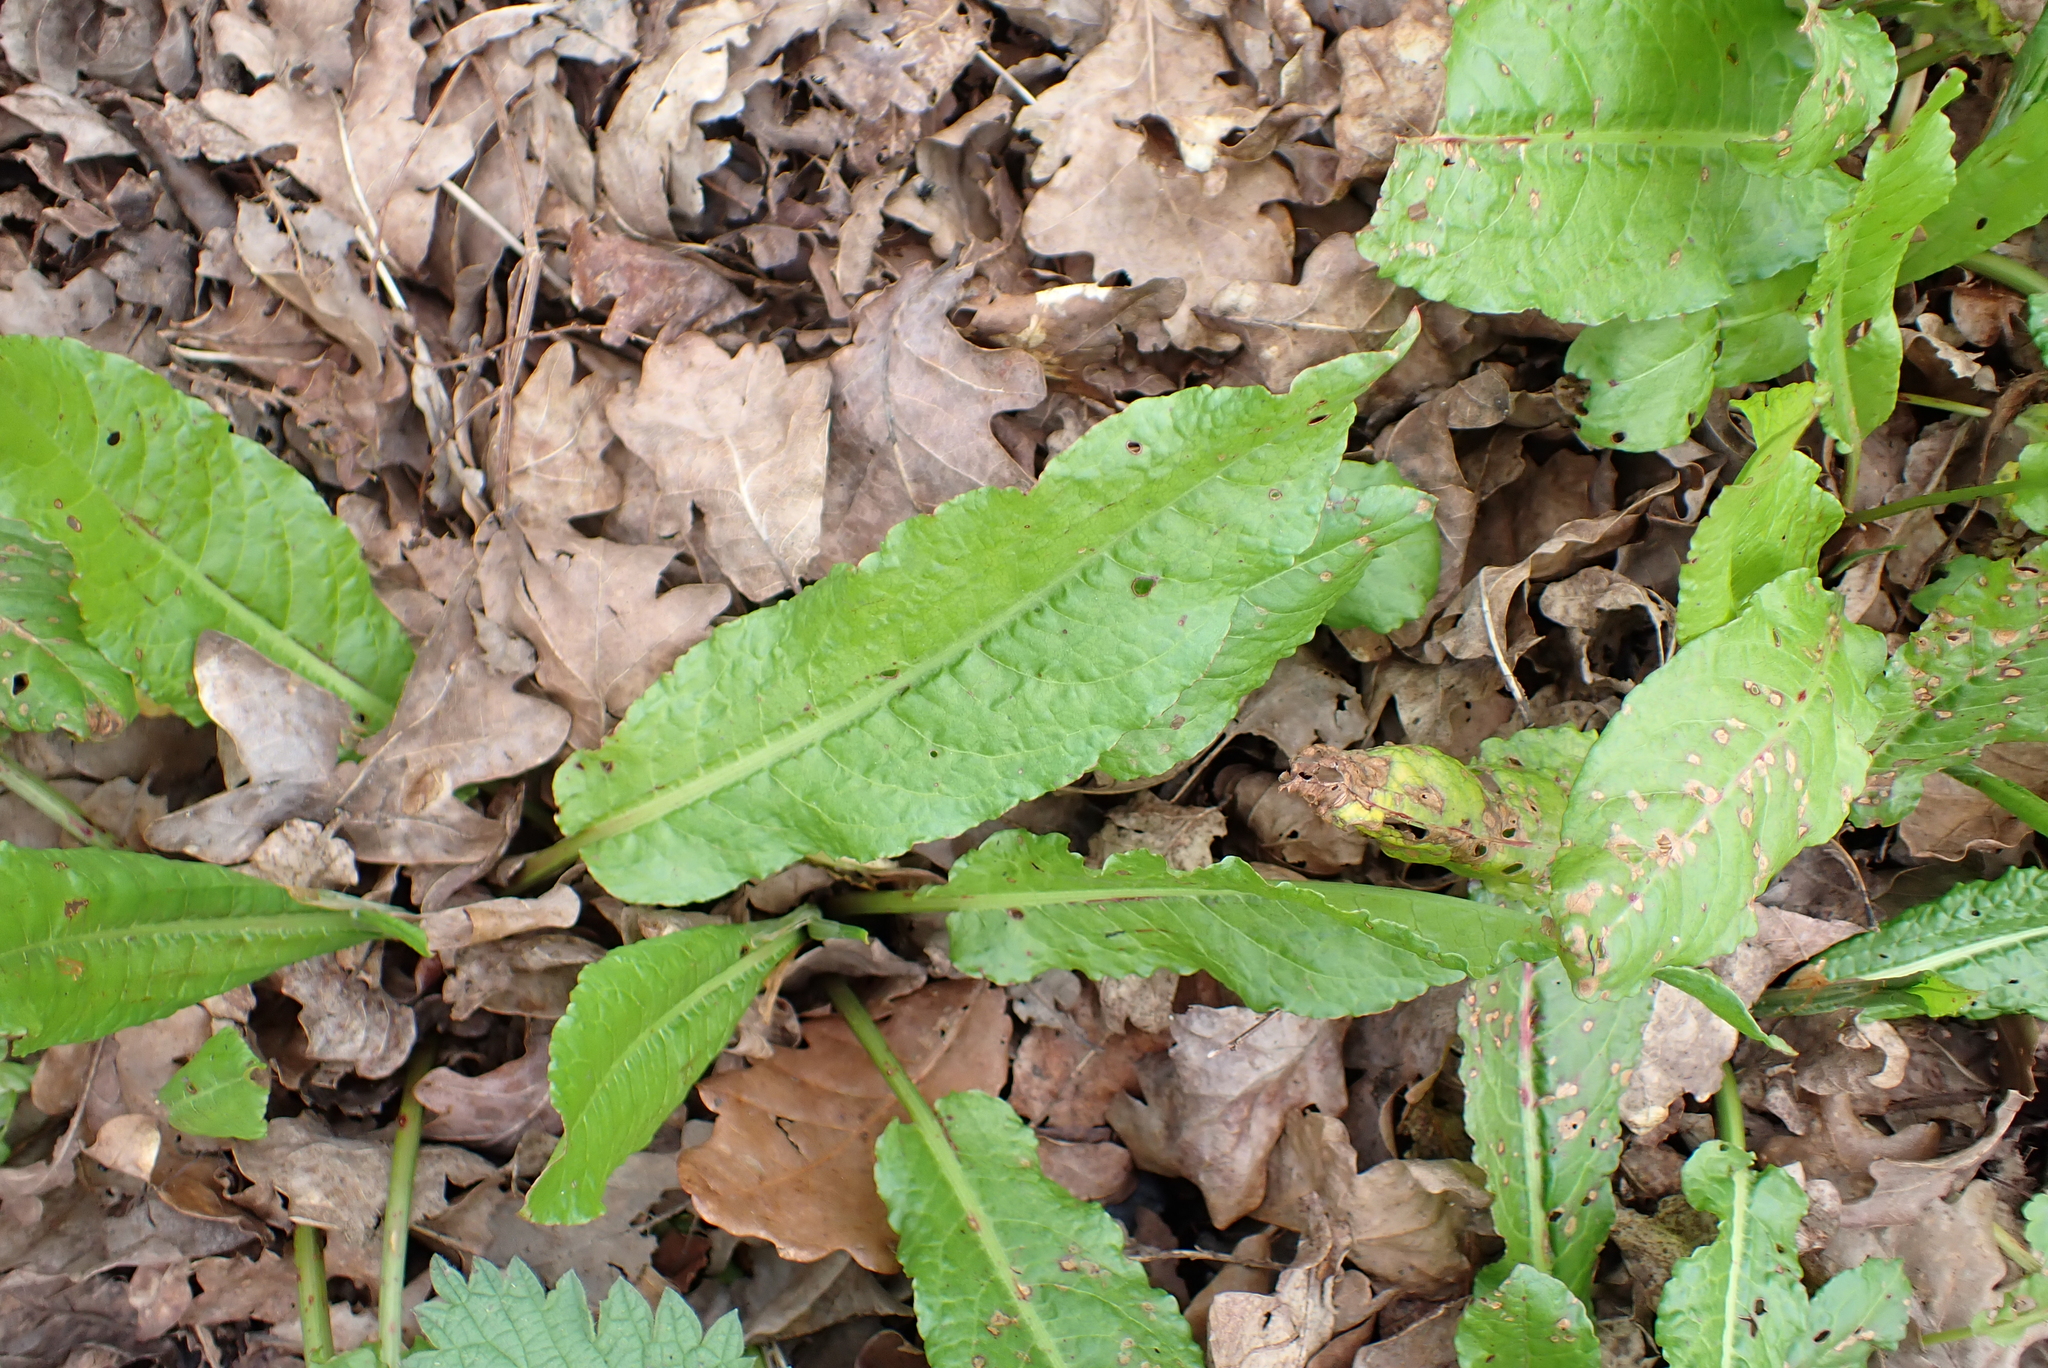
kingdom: Plantae
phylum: Tracheophyta
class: Magnoliopsida
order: Caryophyllales
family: Polygonaceae
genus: Rumex
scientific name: Rumex sanguineus
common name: Wood dock
